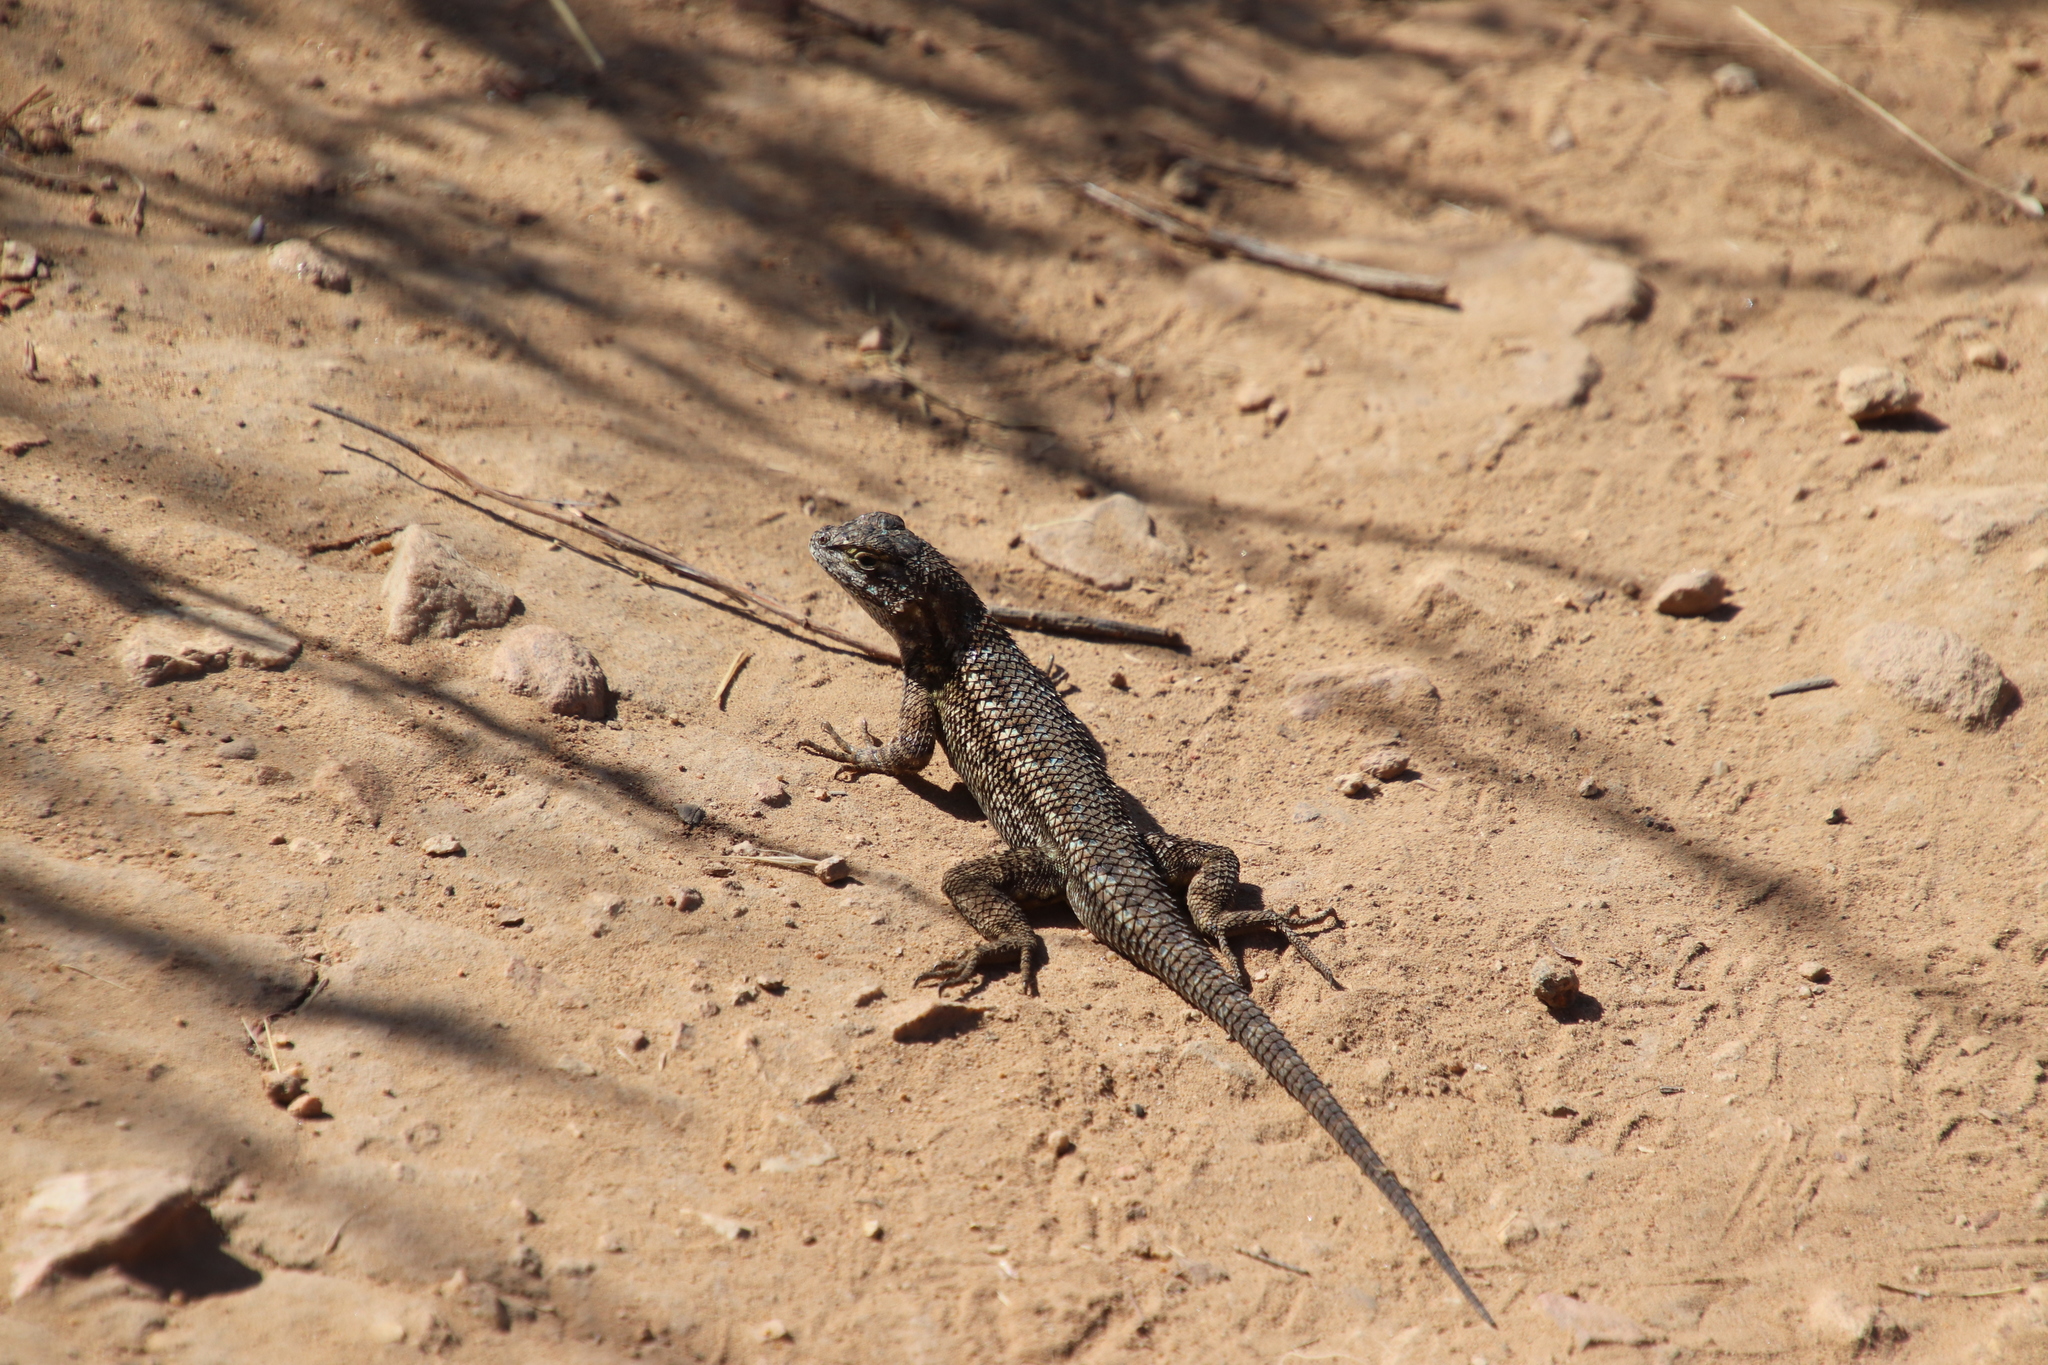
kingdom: Animalia
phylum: Chordata
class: Squamata
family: Phrynosomatidae
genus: Sceloporus
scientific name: Sceloporus occidentalis
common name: Western fence lizard
